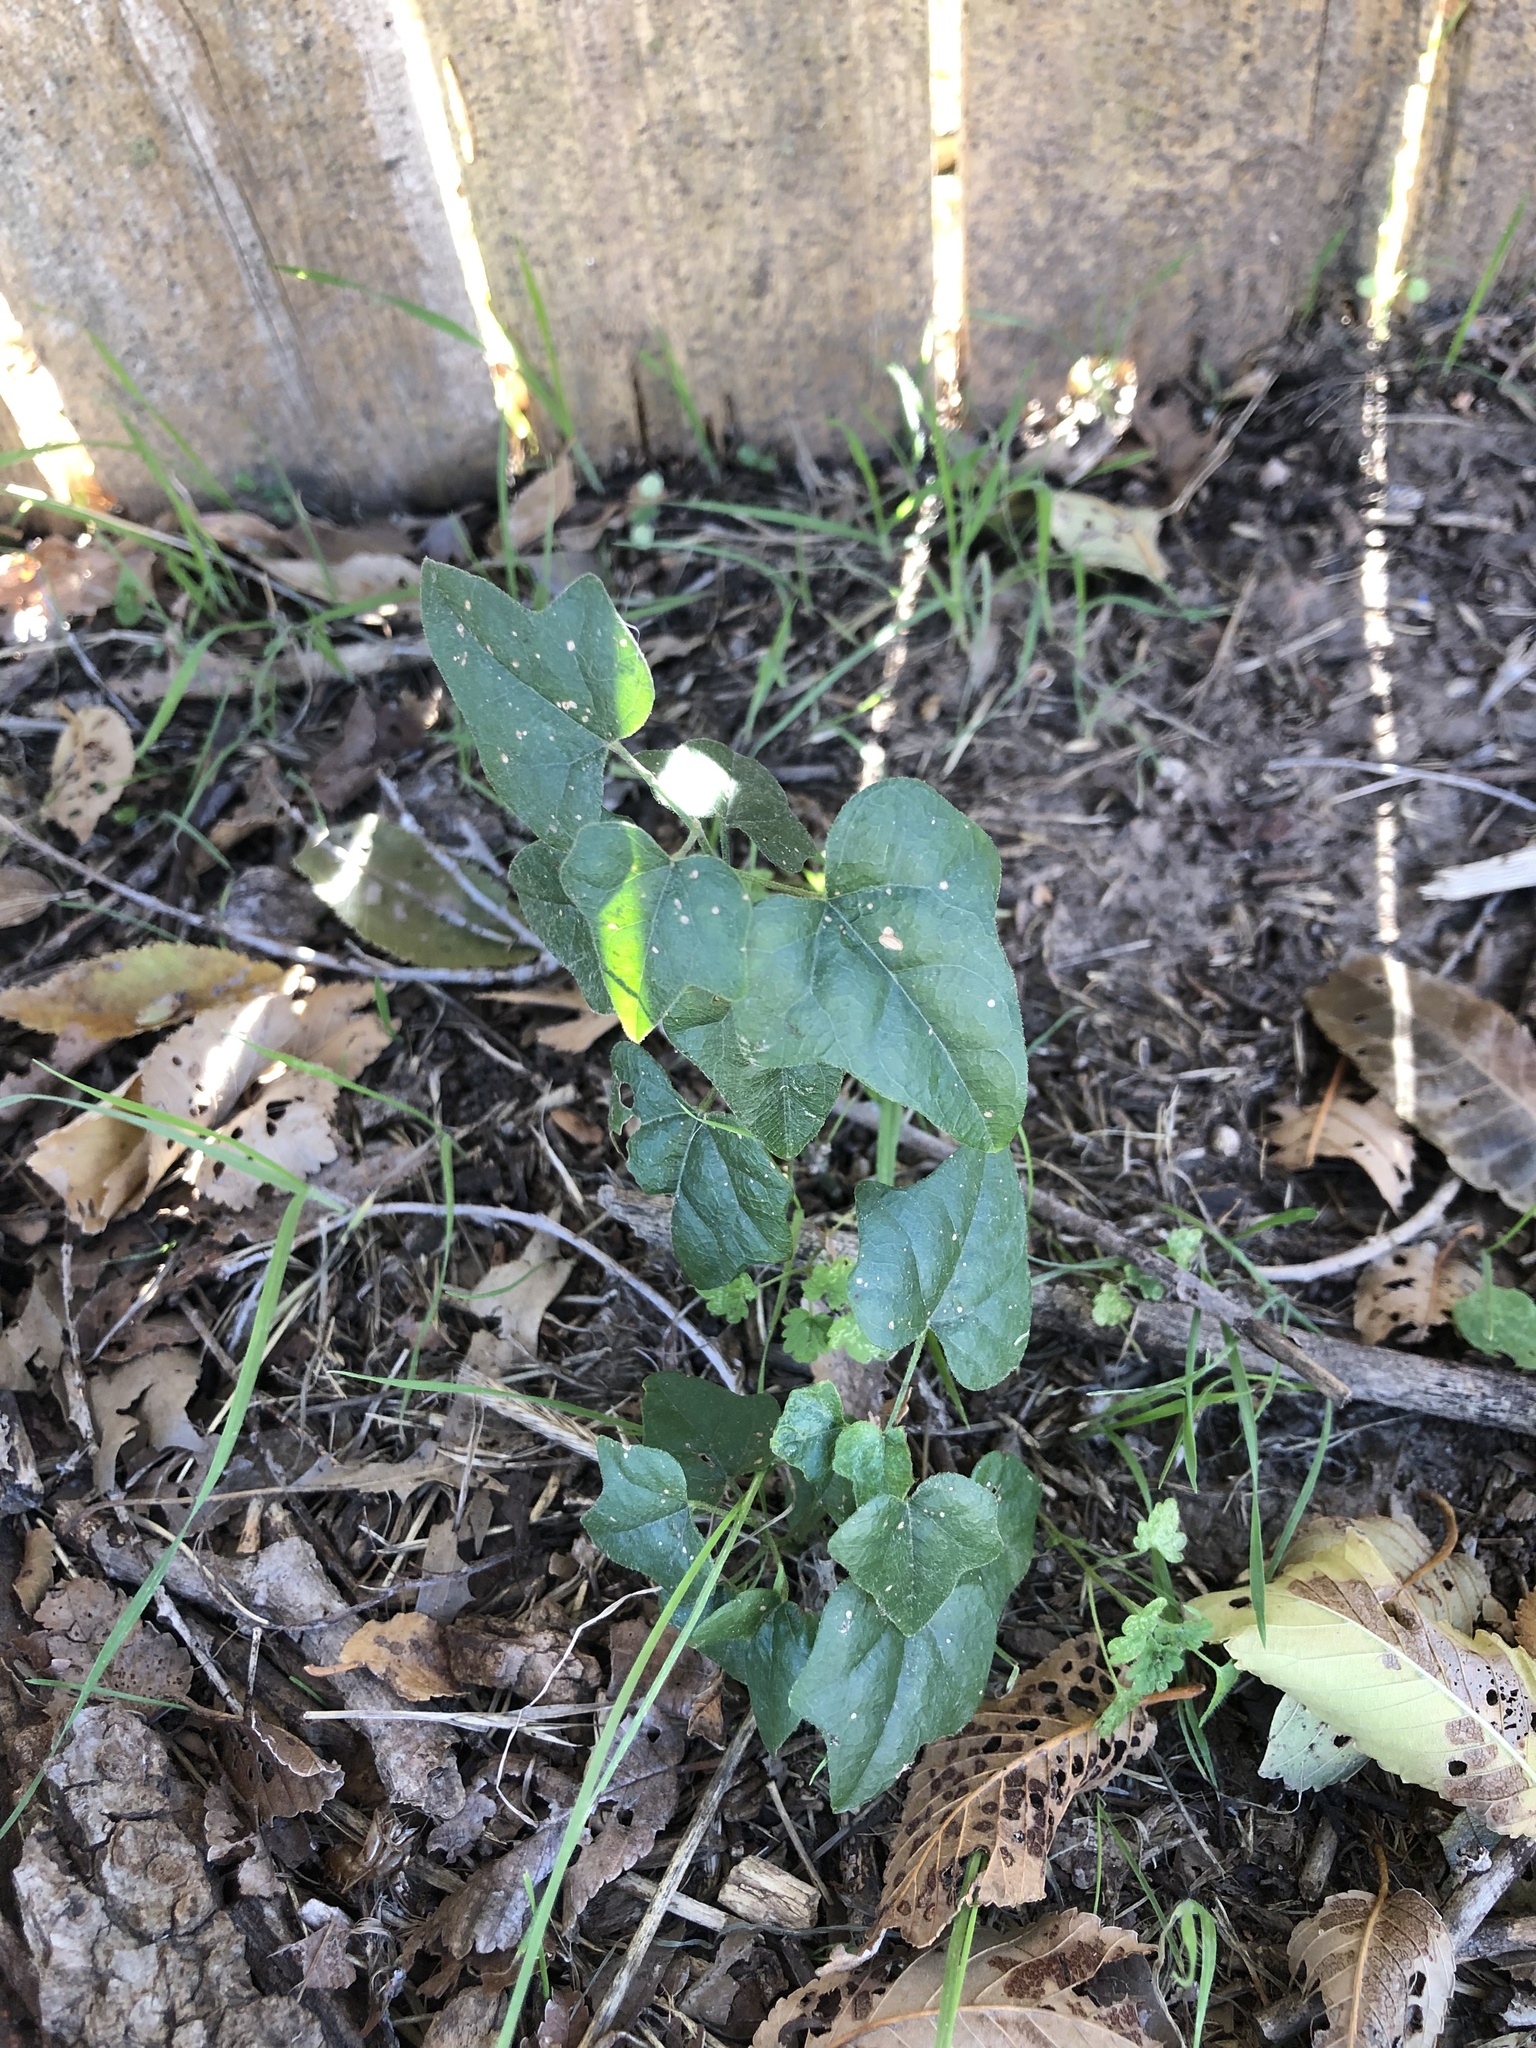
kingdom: Plantae
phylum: Tracheophyta
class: Magnoliopsida
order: Ranunculales
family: Menispermaceae
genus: Cocculus
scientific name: Cocculus carolinus
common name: Carolina moonseed
